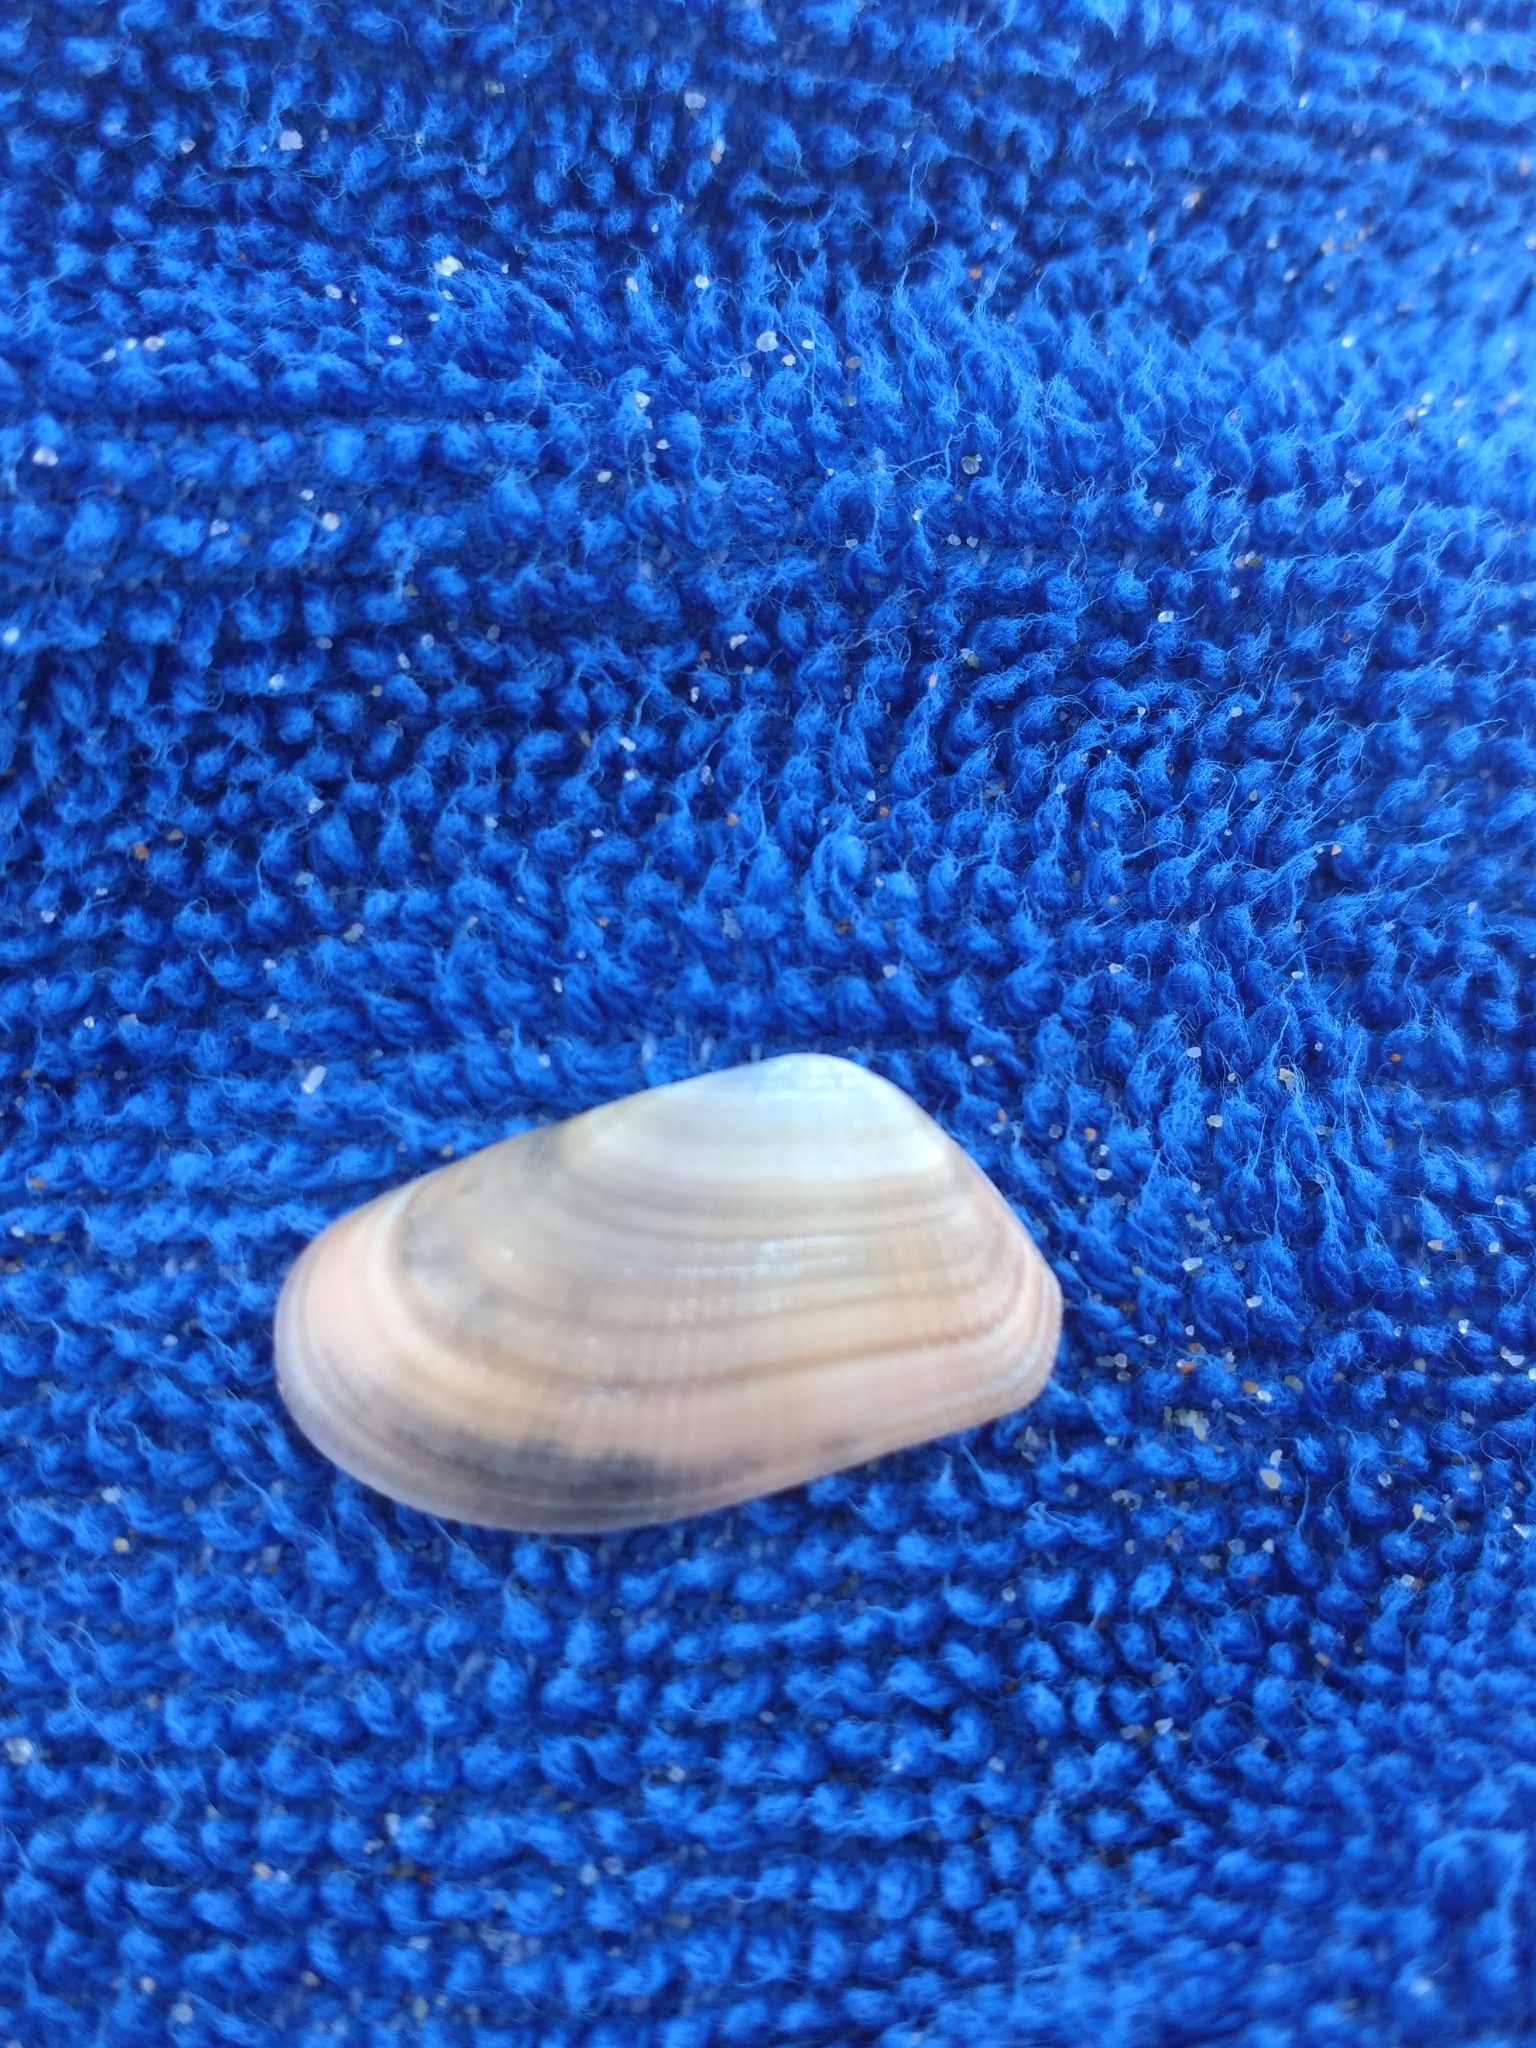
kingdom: Animalia
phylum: Mollusca
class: Bivalvia
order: Cardiida
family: Donacidae
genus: Donax
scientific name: Donax gouldii
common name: Gould beanclam
